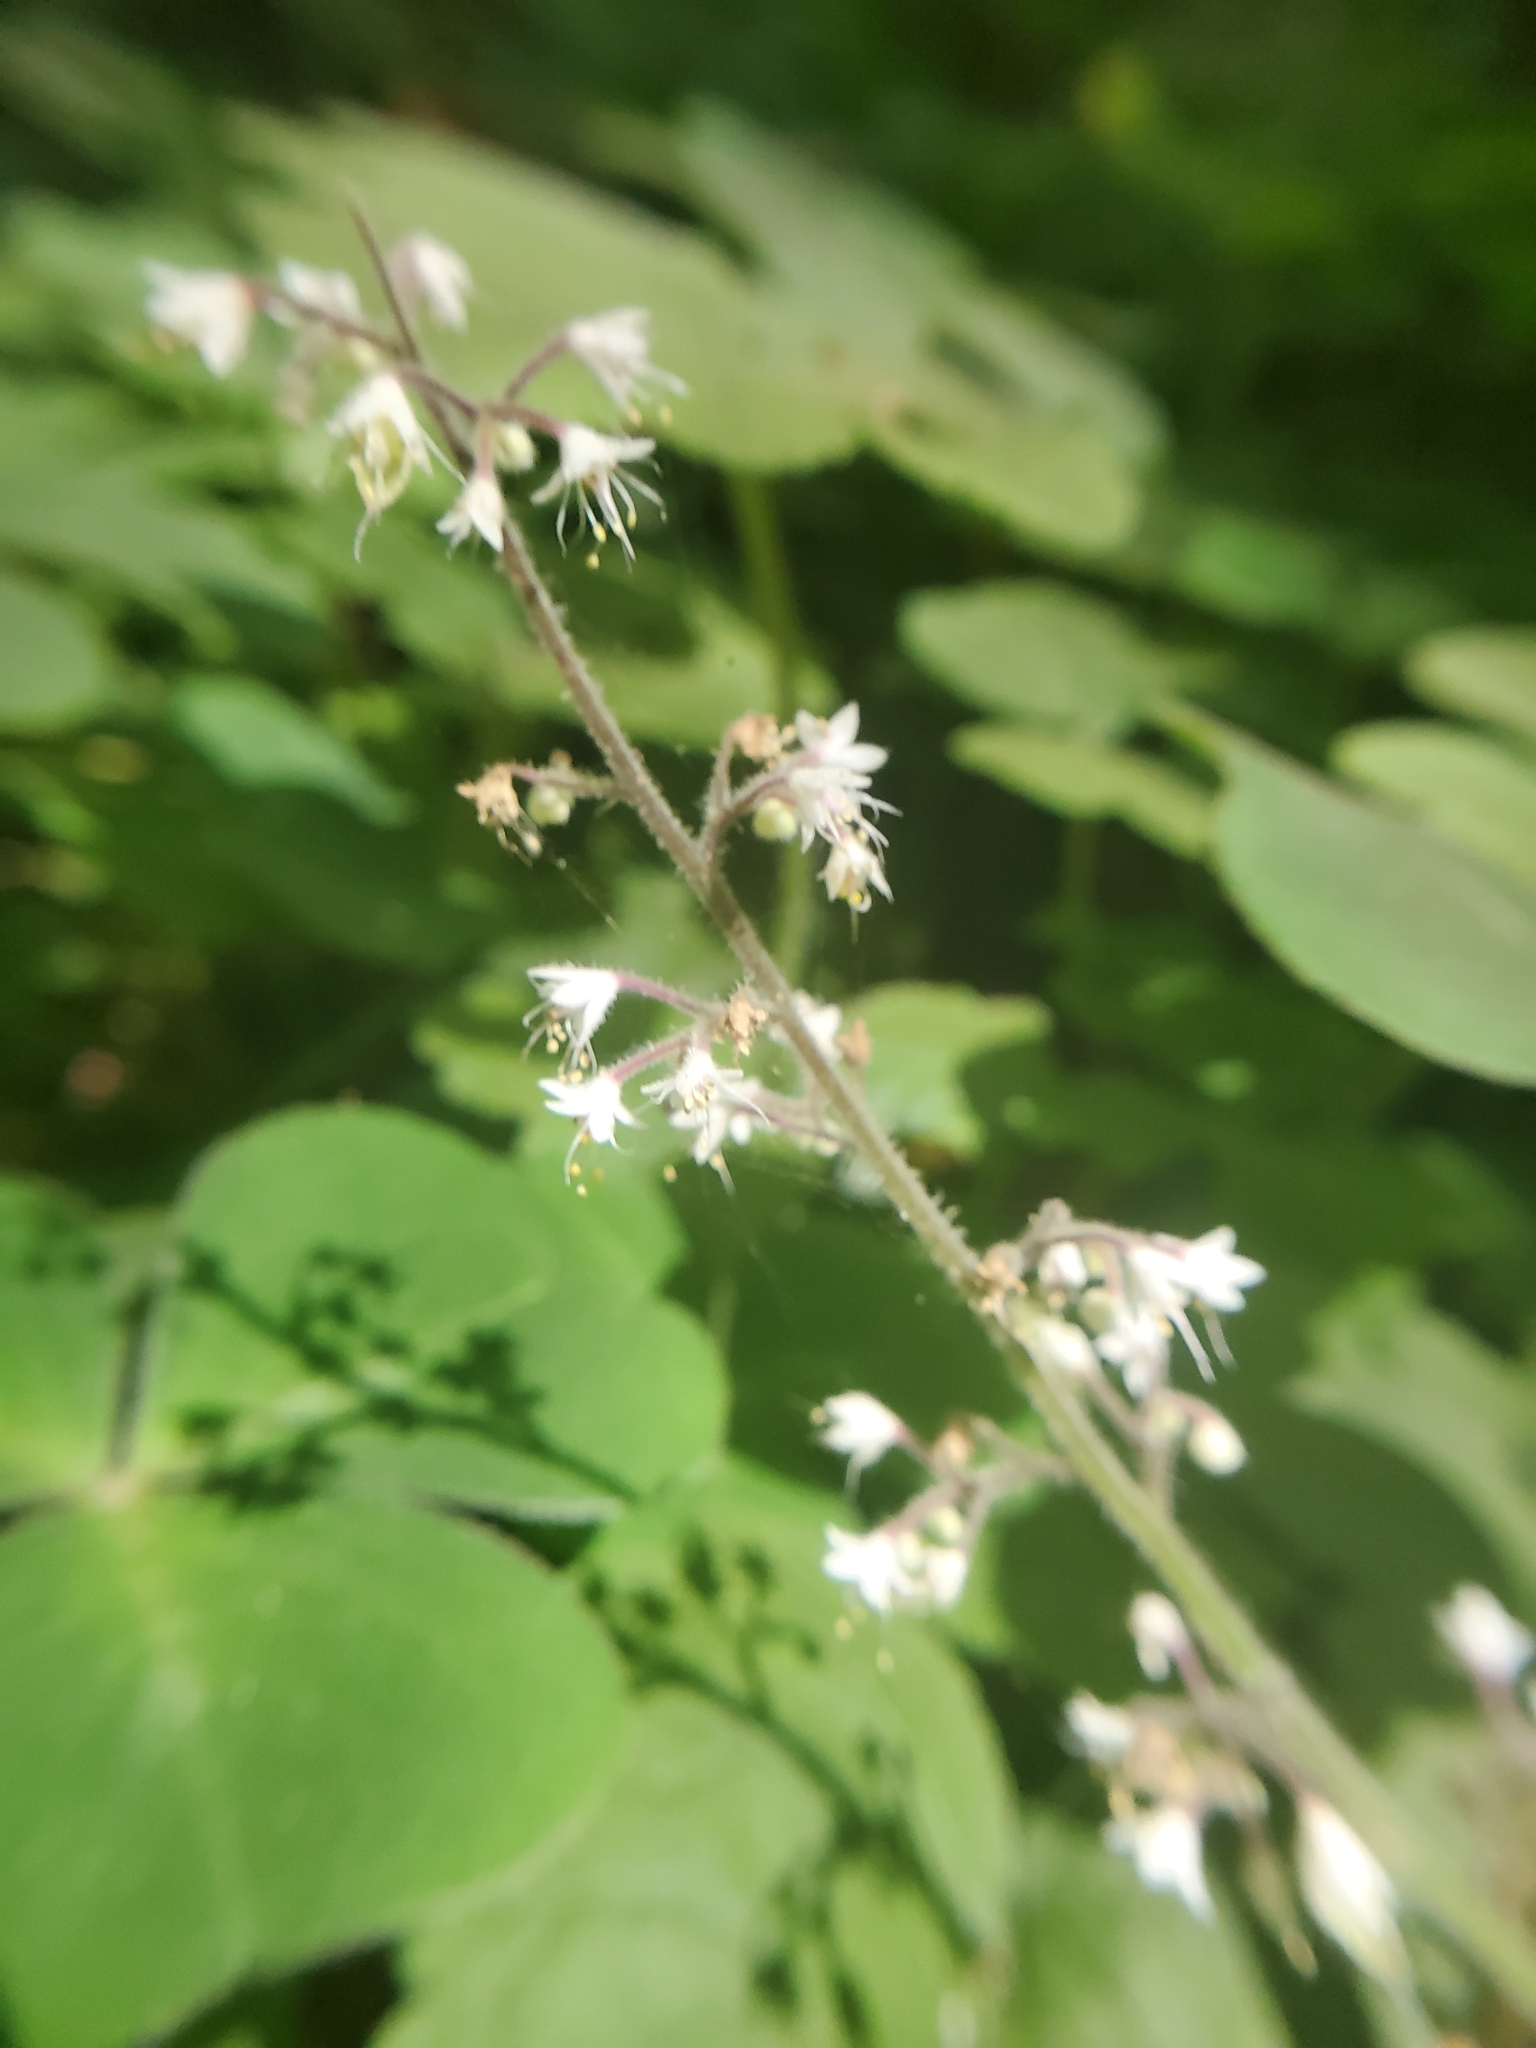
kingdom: Plantae
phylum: Tracheophyta
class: Magnoliopsida
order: Saxifragales
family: Saxifragaceae
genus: Tiarella
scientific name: Tiarella trifoliata
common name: Sugar-scoop
